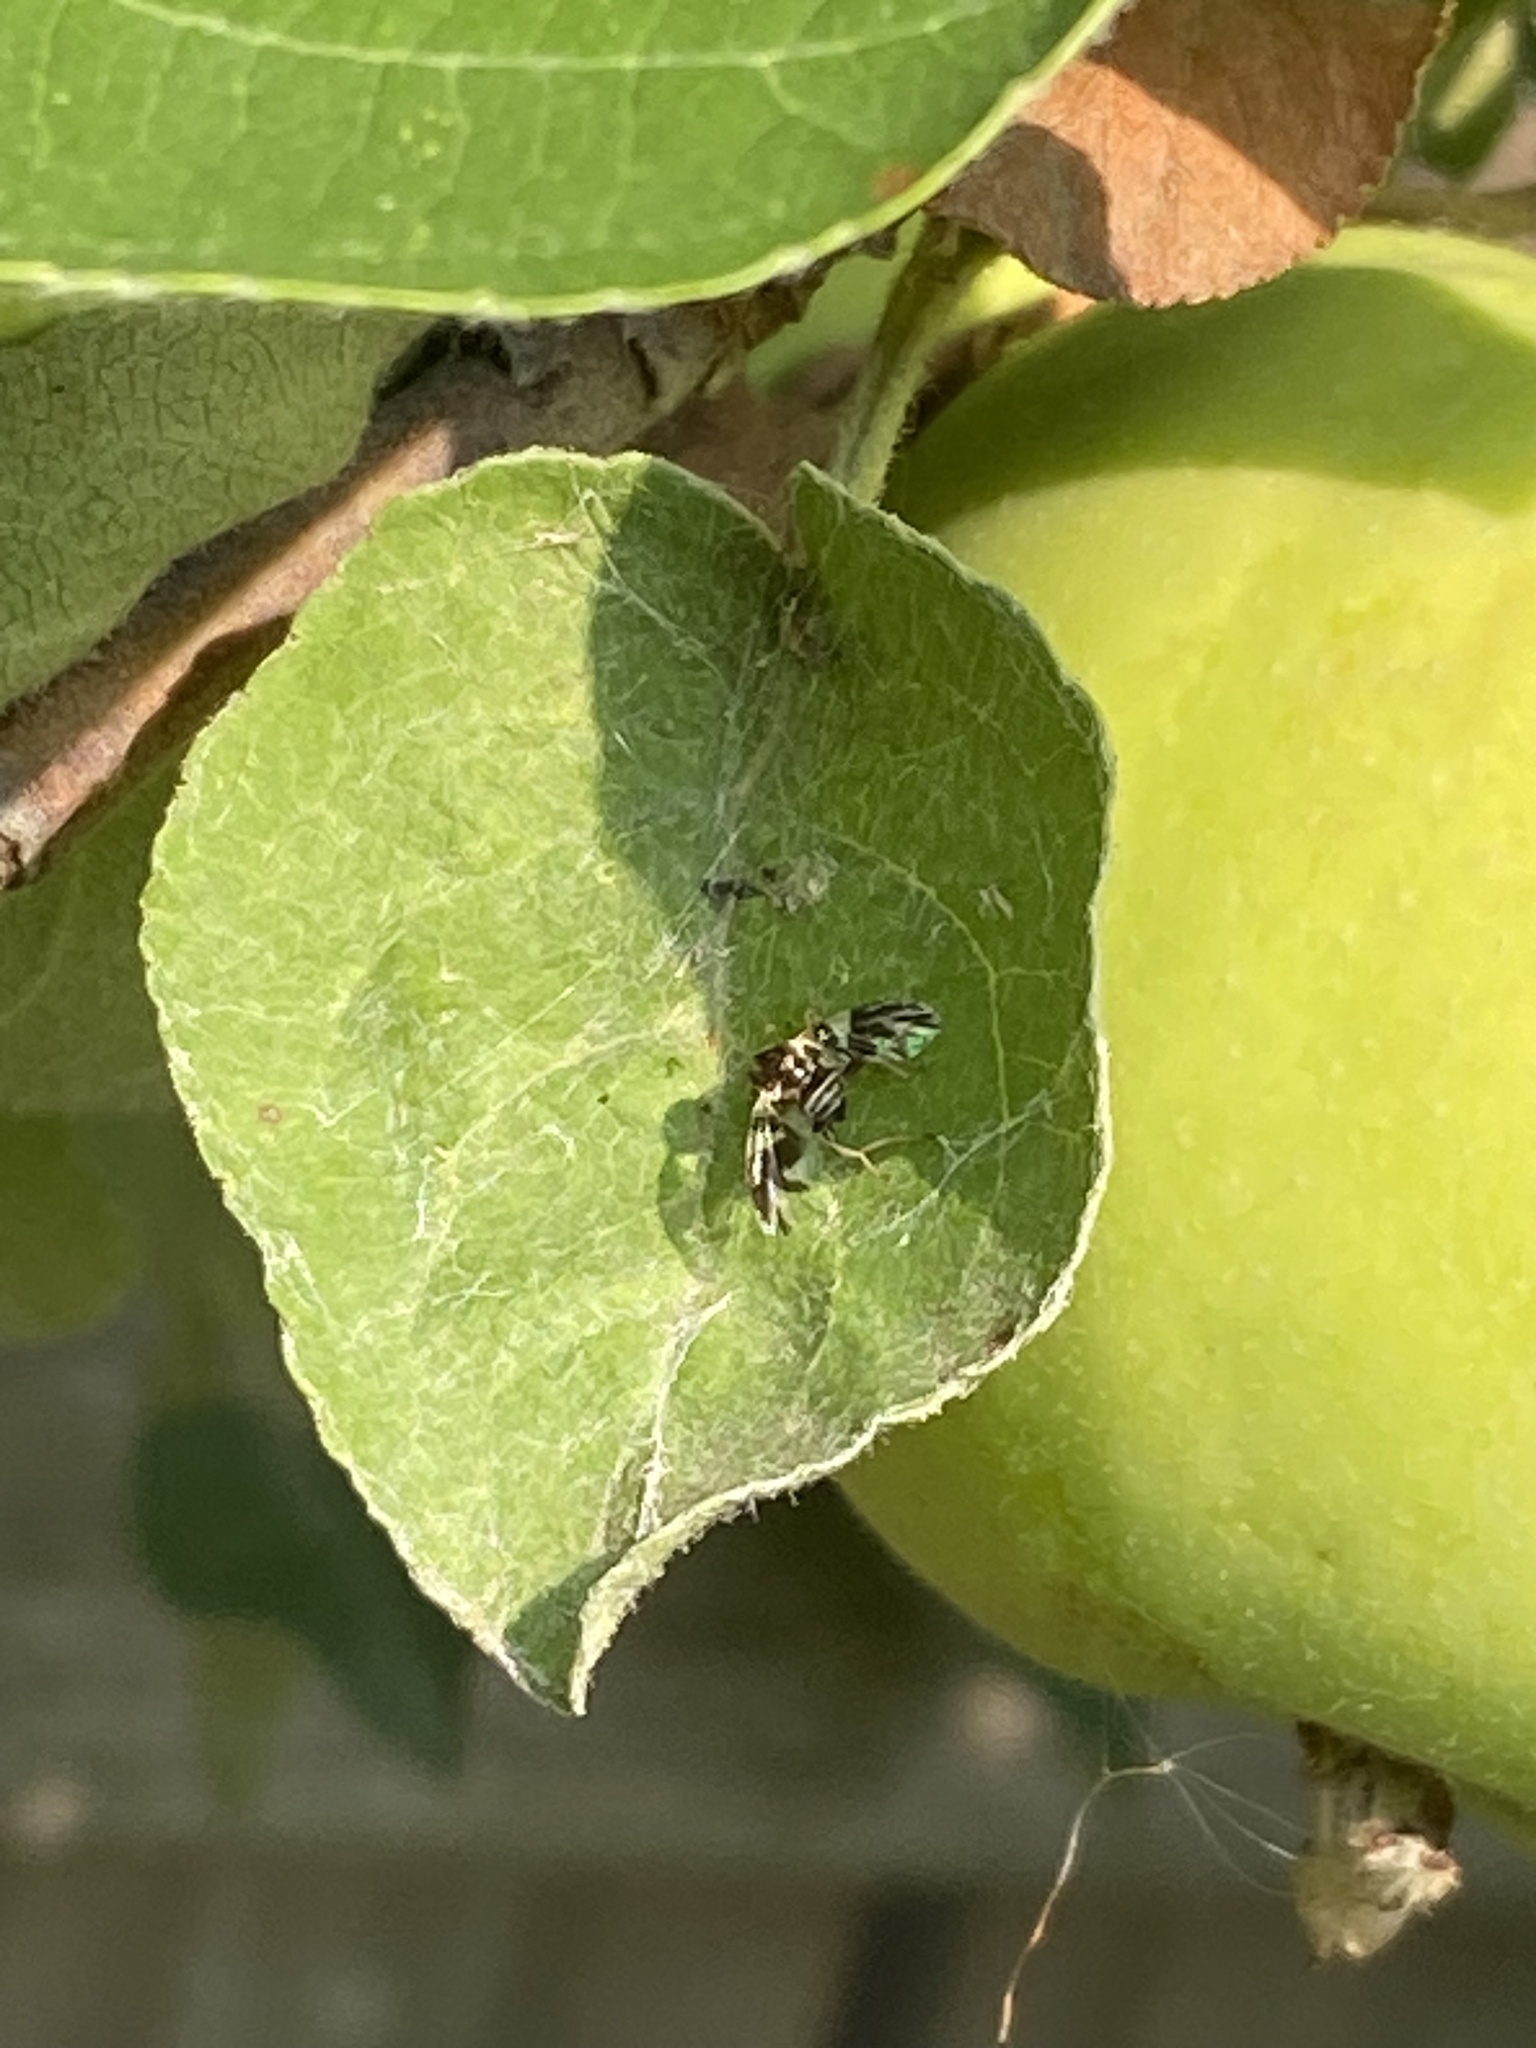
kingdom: Animalia
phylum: Arthropoda
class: Insecta
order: Diptera
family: Tephritidae
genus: Rhagoletis
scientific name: Rhagoletis pomonella
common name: Apple maggot
